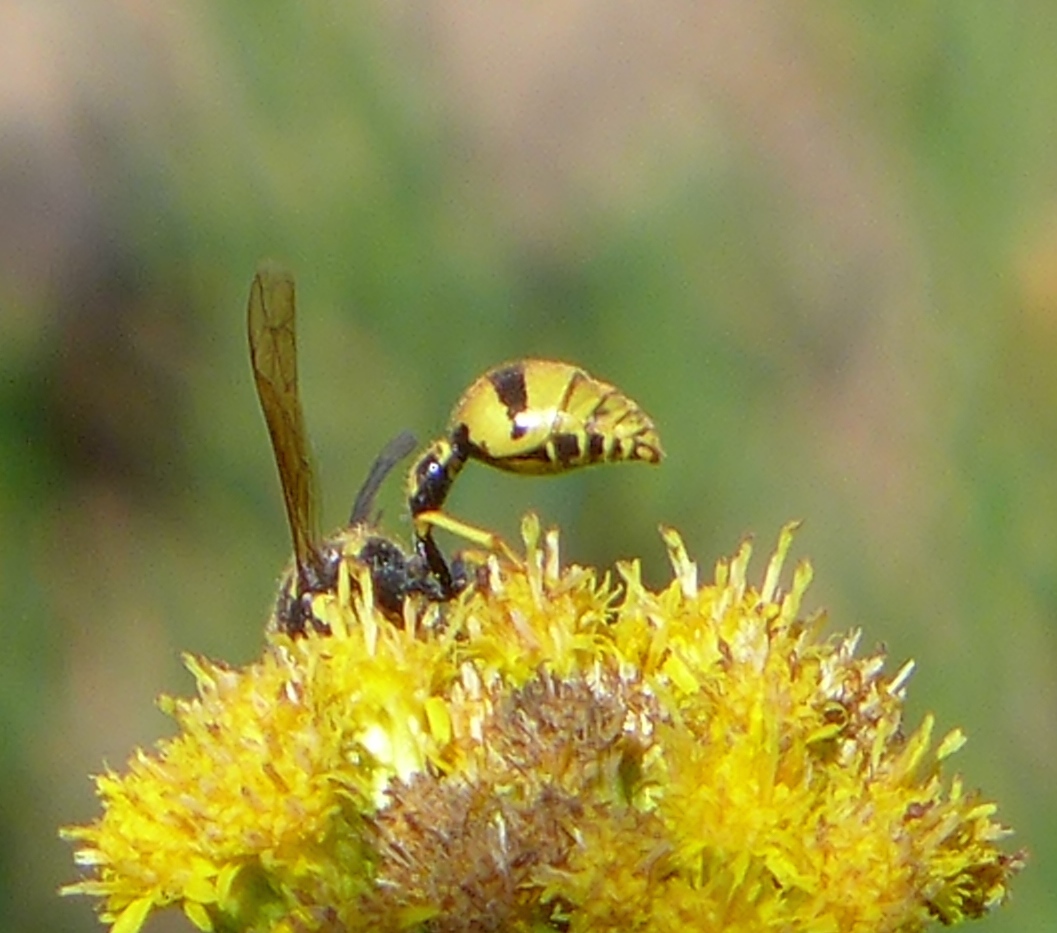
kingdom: Animalia
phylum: Arthropoda
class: Insecta
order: Hymenoptera
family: Vespidae
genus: Eumenes
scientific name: Eumenes crucifera
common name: Cross potter wasp
